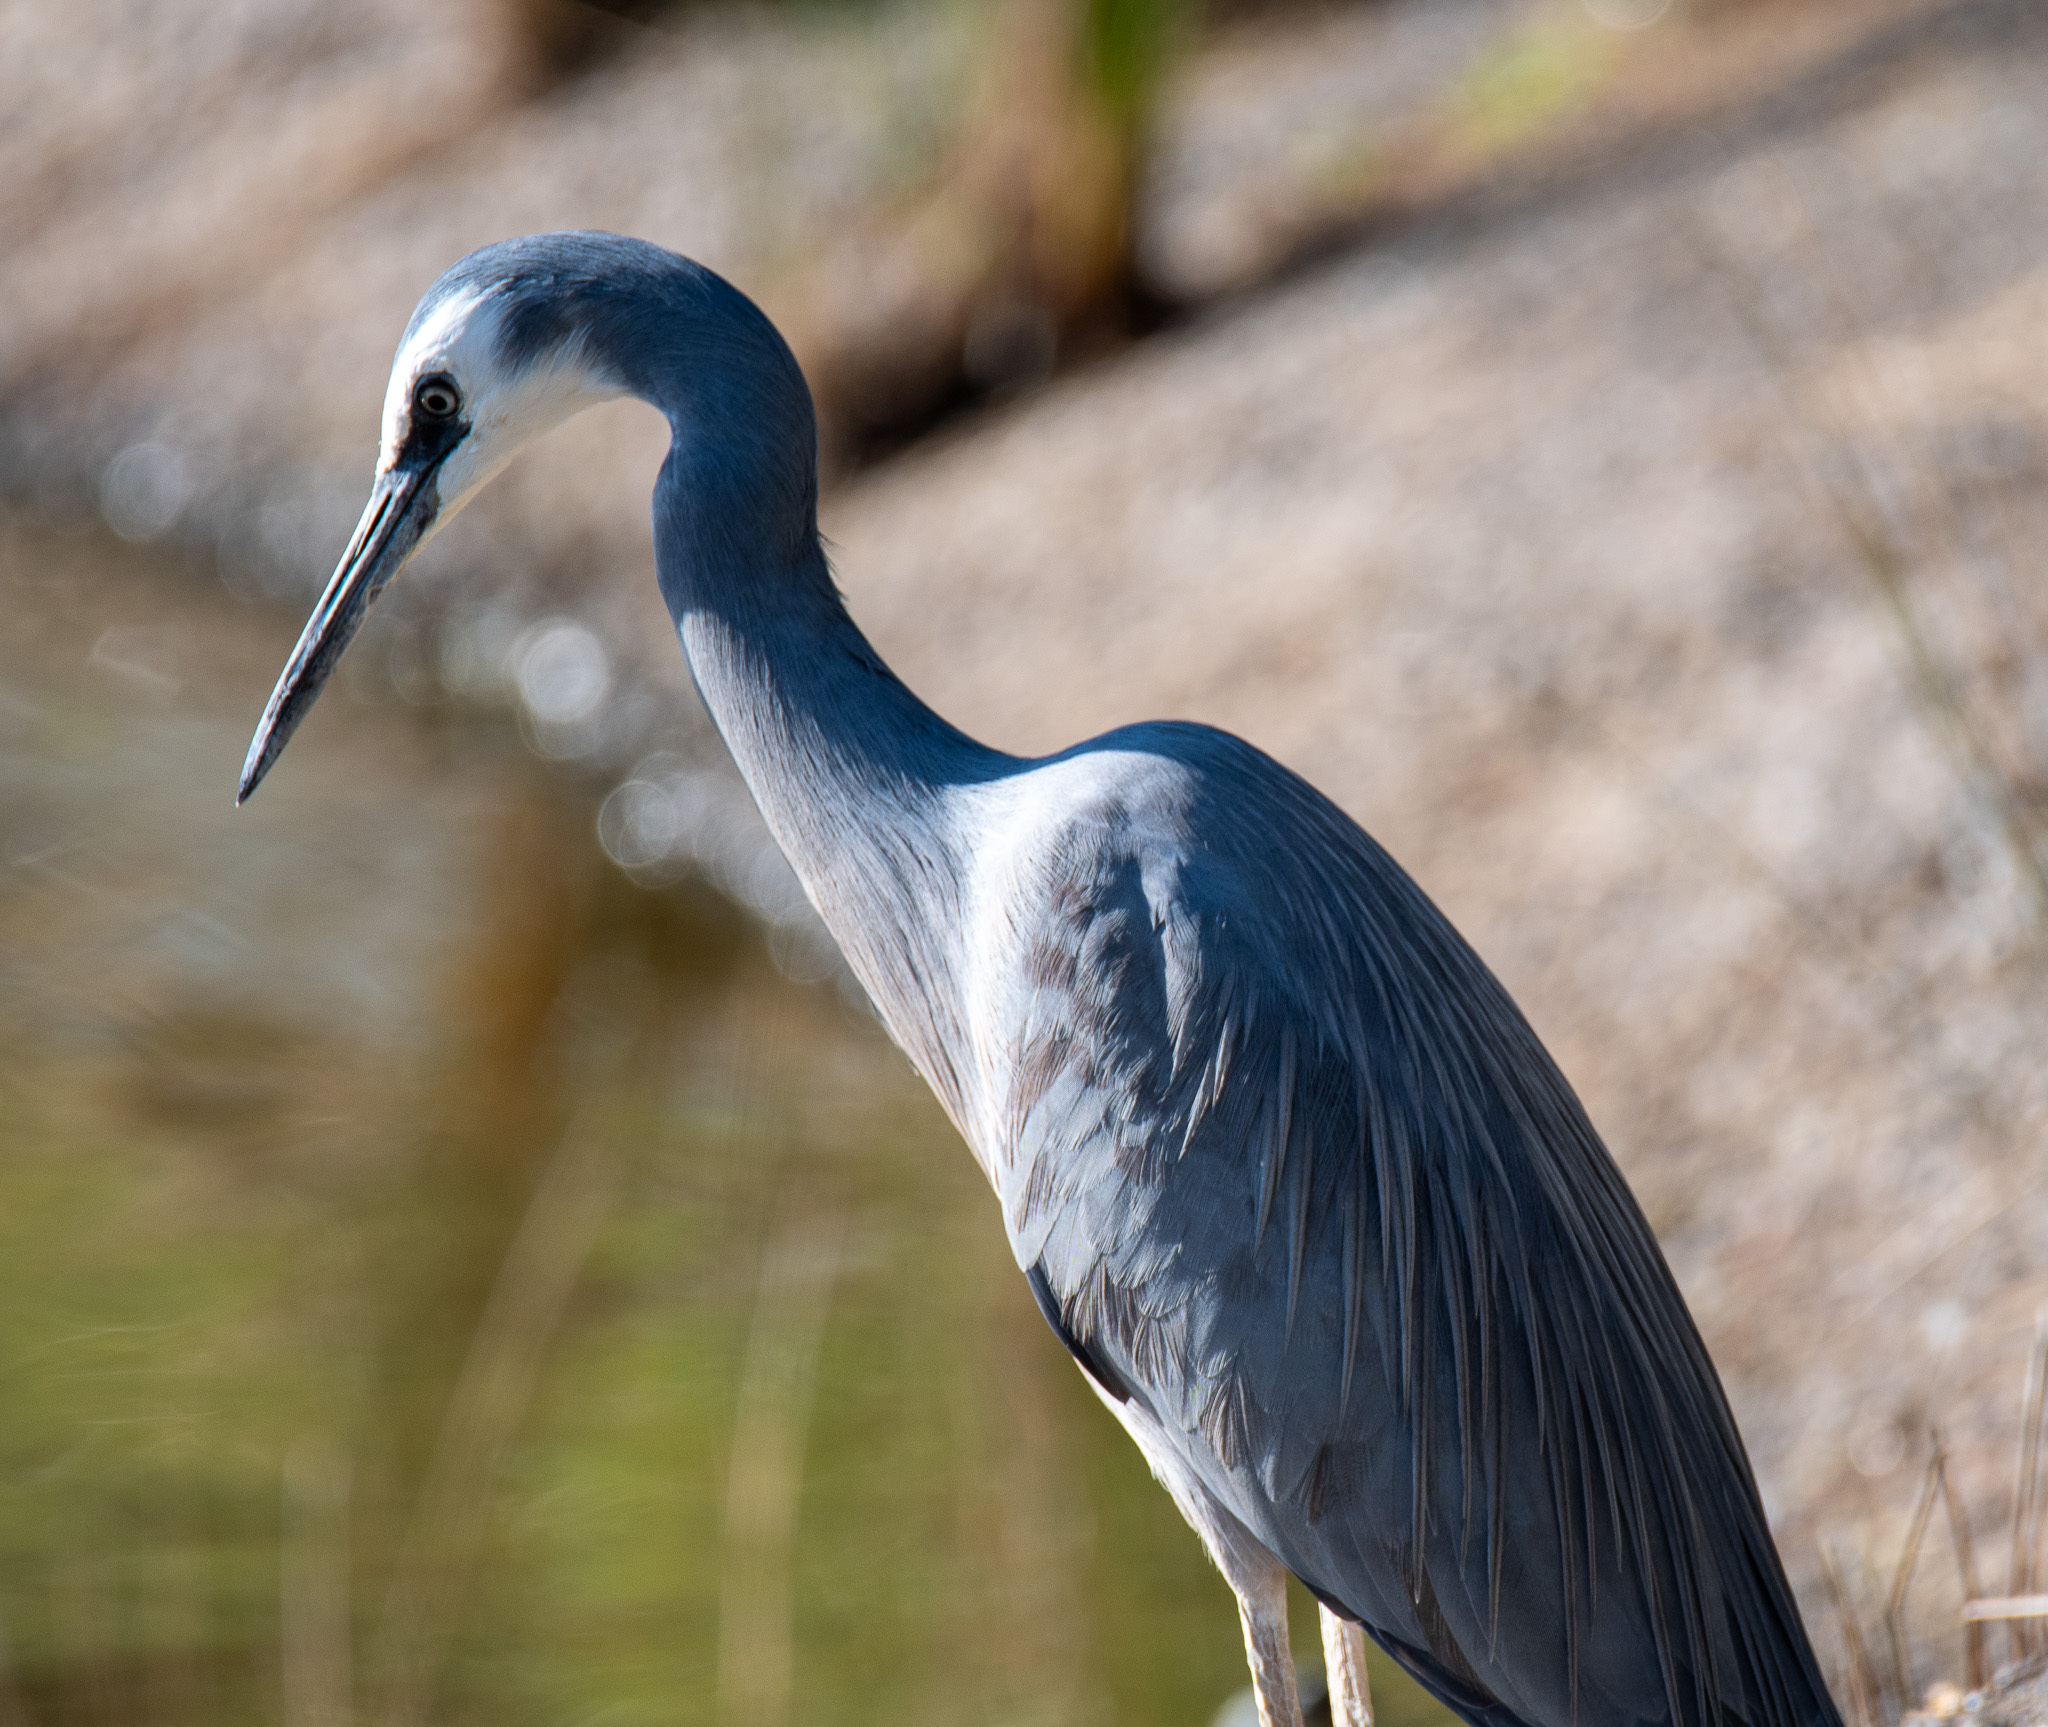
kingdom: Animalia
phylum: Chordata
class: Aves
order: Pelecaniformes
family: Ardeidae
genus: Egretta
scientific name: Egretta novaehollandiae
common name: White-faced heron
